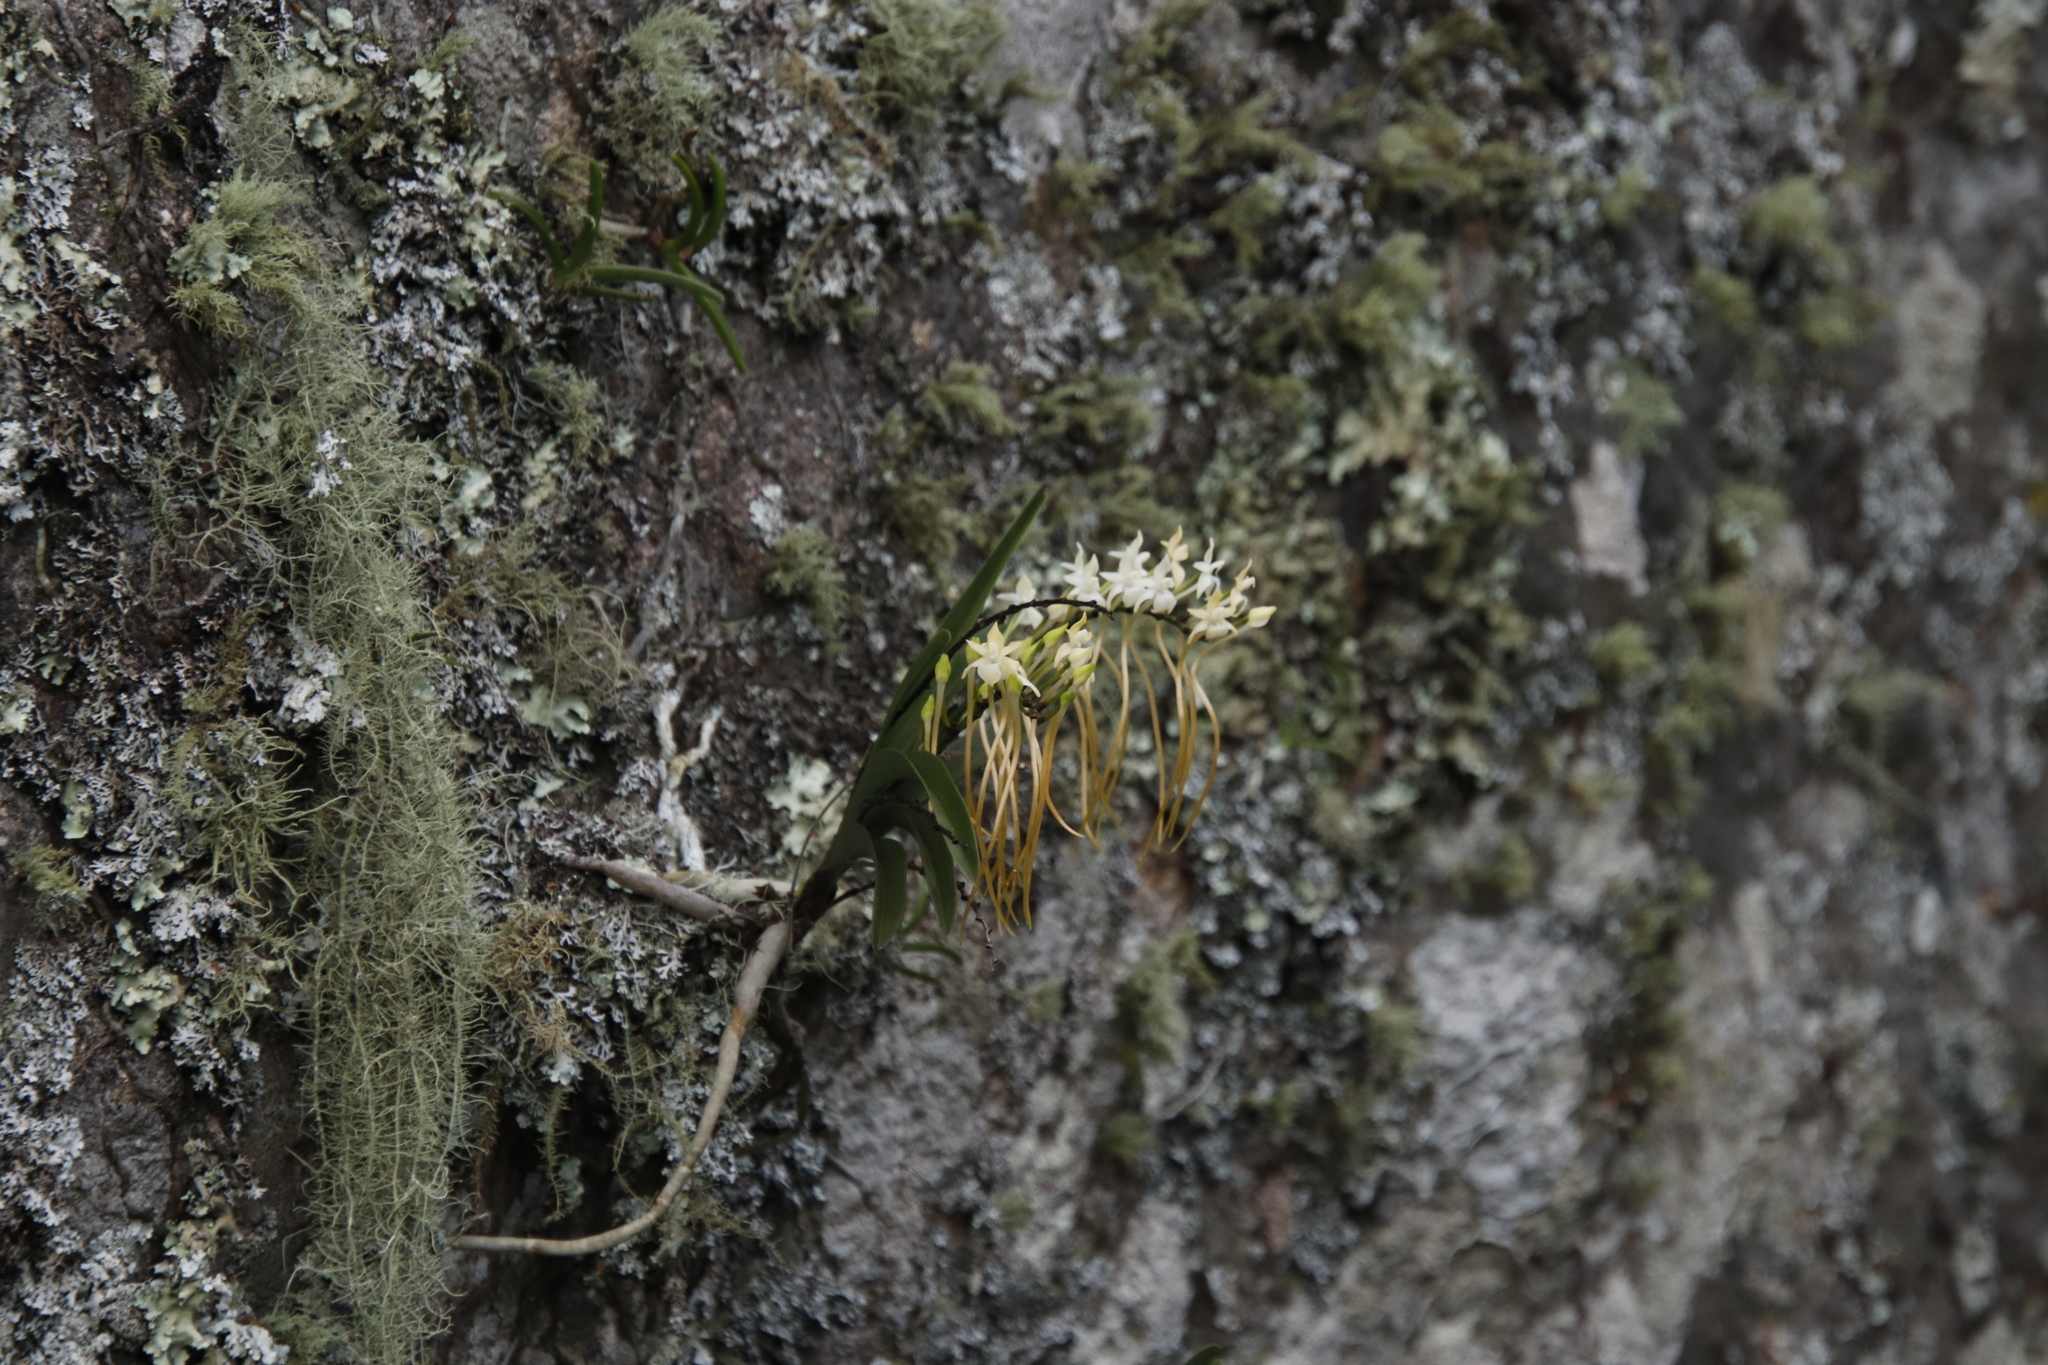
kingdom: Plantae
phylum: Tracheophyta
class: Liliopsida
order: Asparagales
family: Orchidaceae
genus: Rangaeris
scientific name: Rangaeris muscicola
